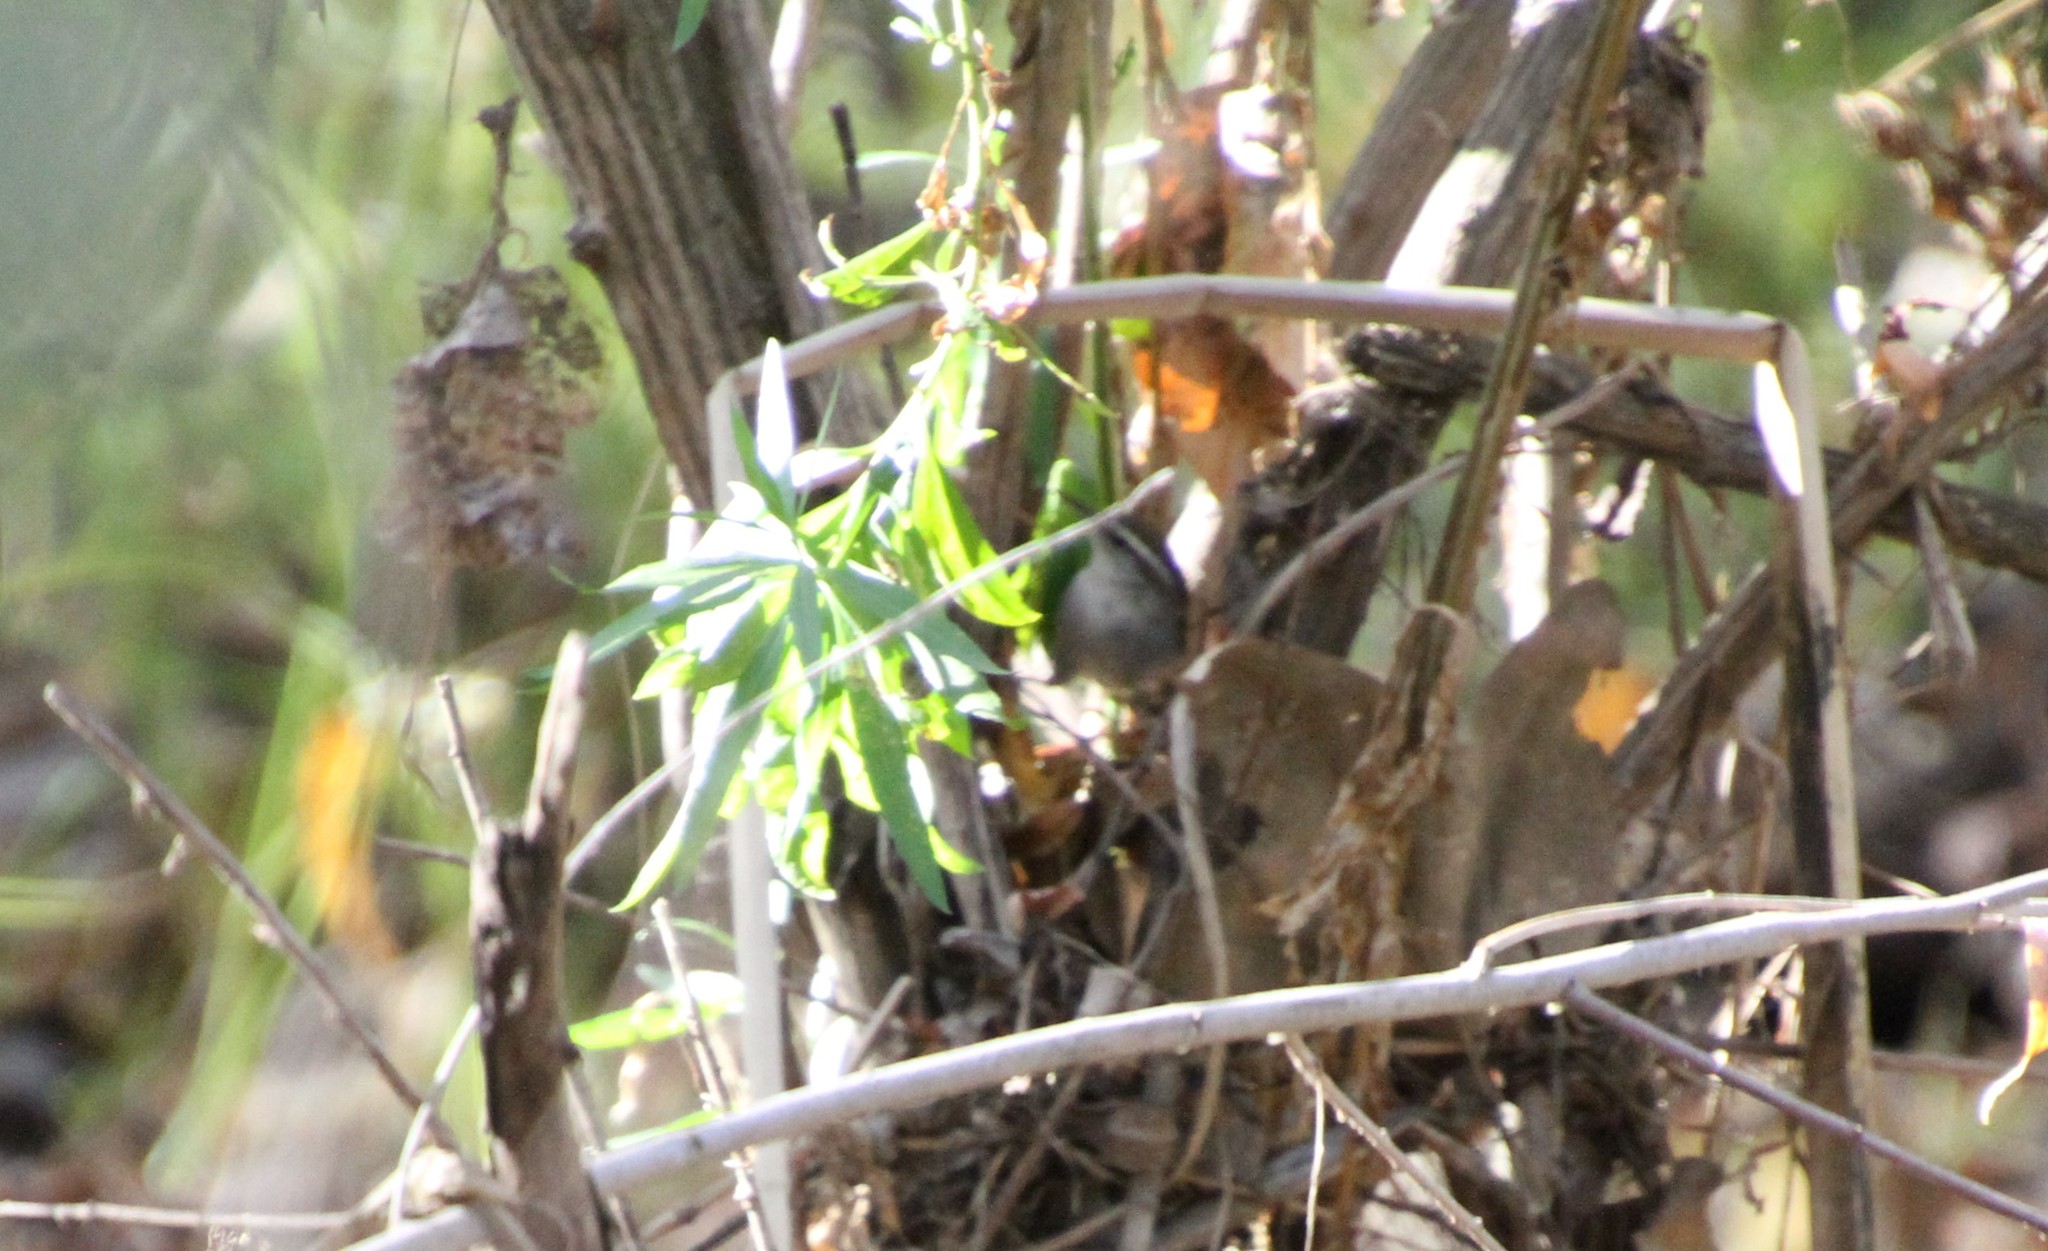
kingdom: Animalia
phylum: Chordata
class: Aves
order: Passeriformes
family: Troglodytidae
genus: Thryomanes
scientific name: Thryomanes bewickii
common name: Bewick's wren
